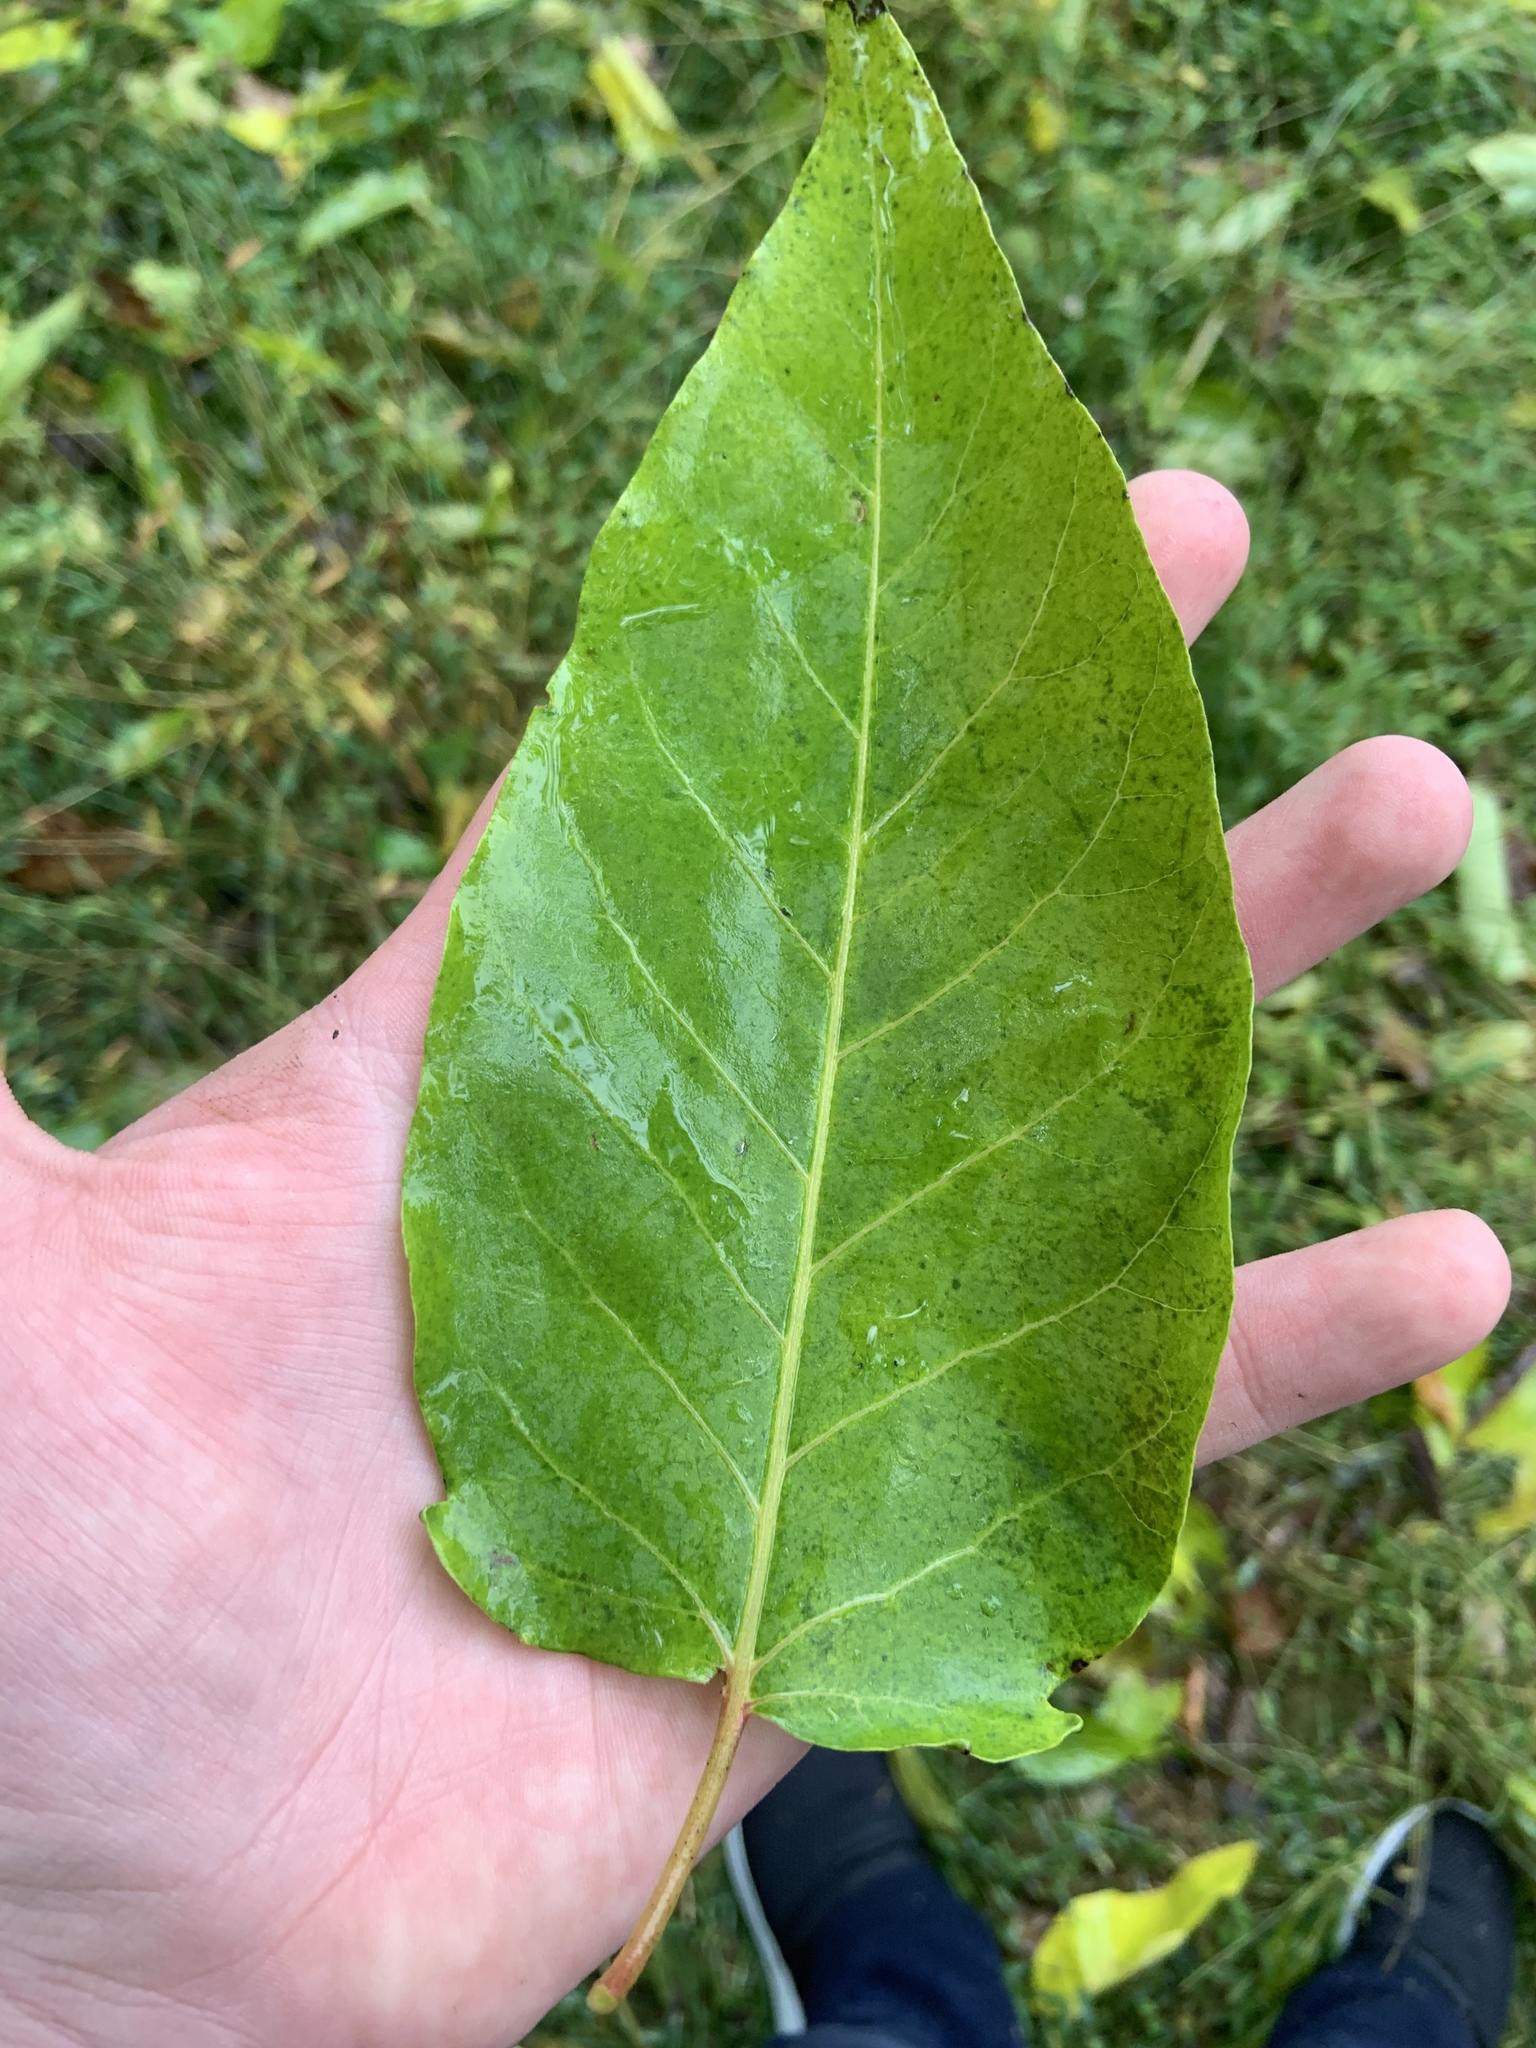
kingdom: Plantae
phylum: Tracheophyta
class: Magnoliopsida
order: Sapindales
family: Simaroubaceae
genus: Ailanthus
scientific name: Ailanthus altissima
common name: Tree-of-heaven
